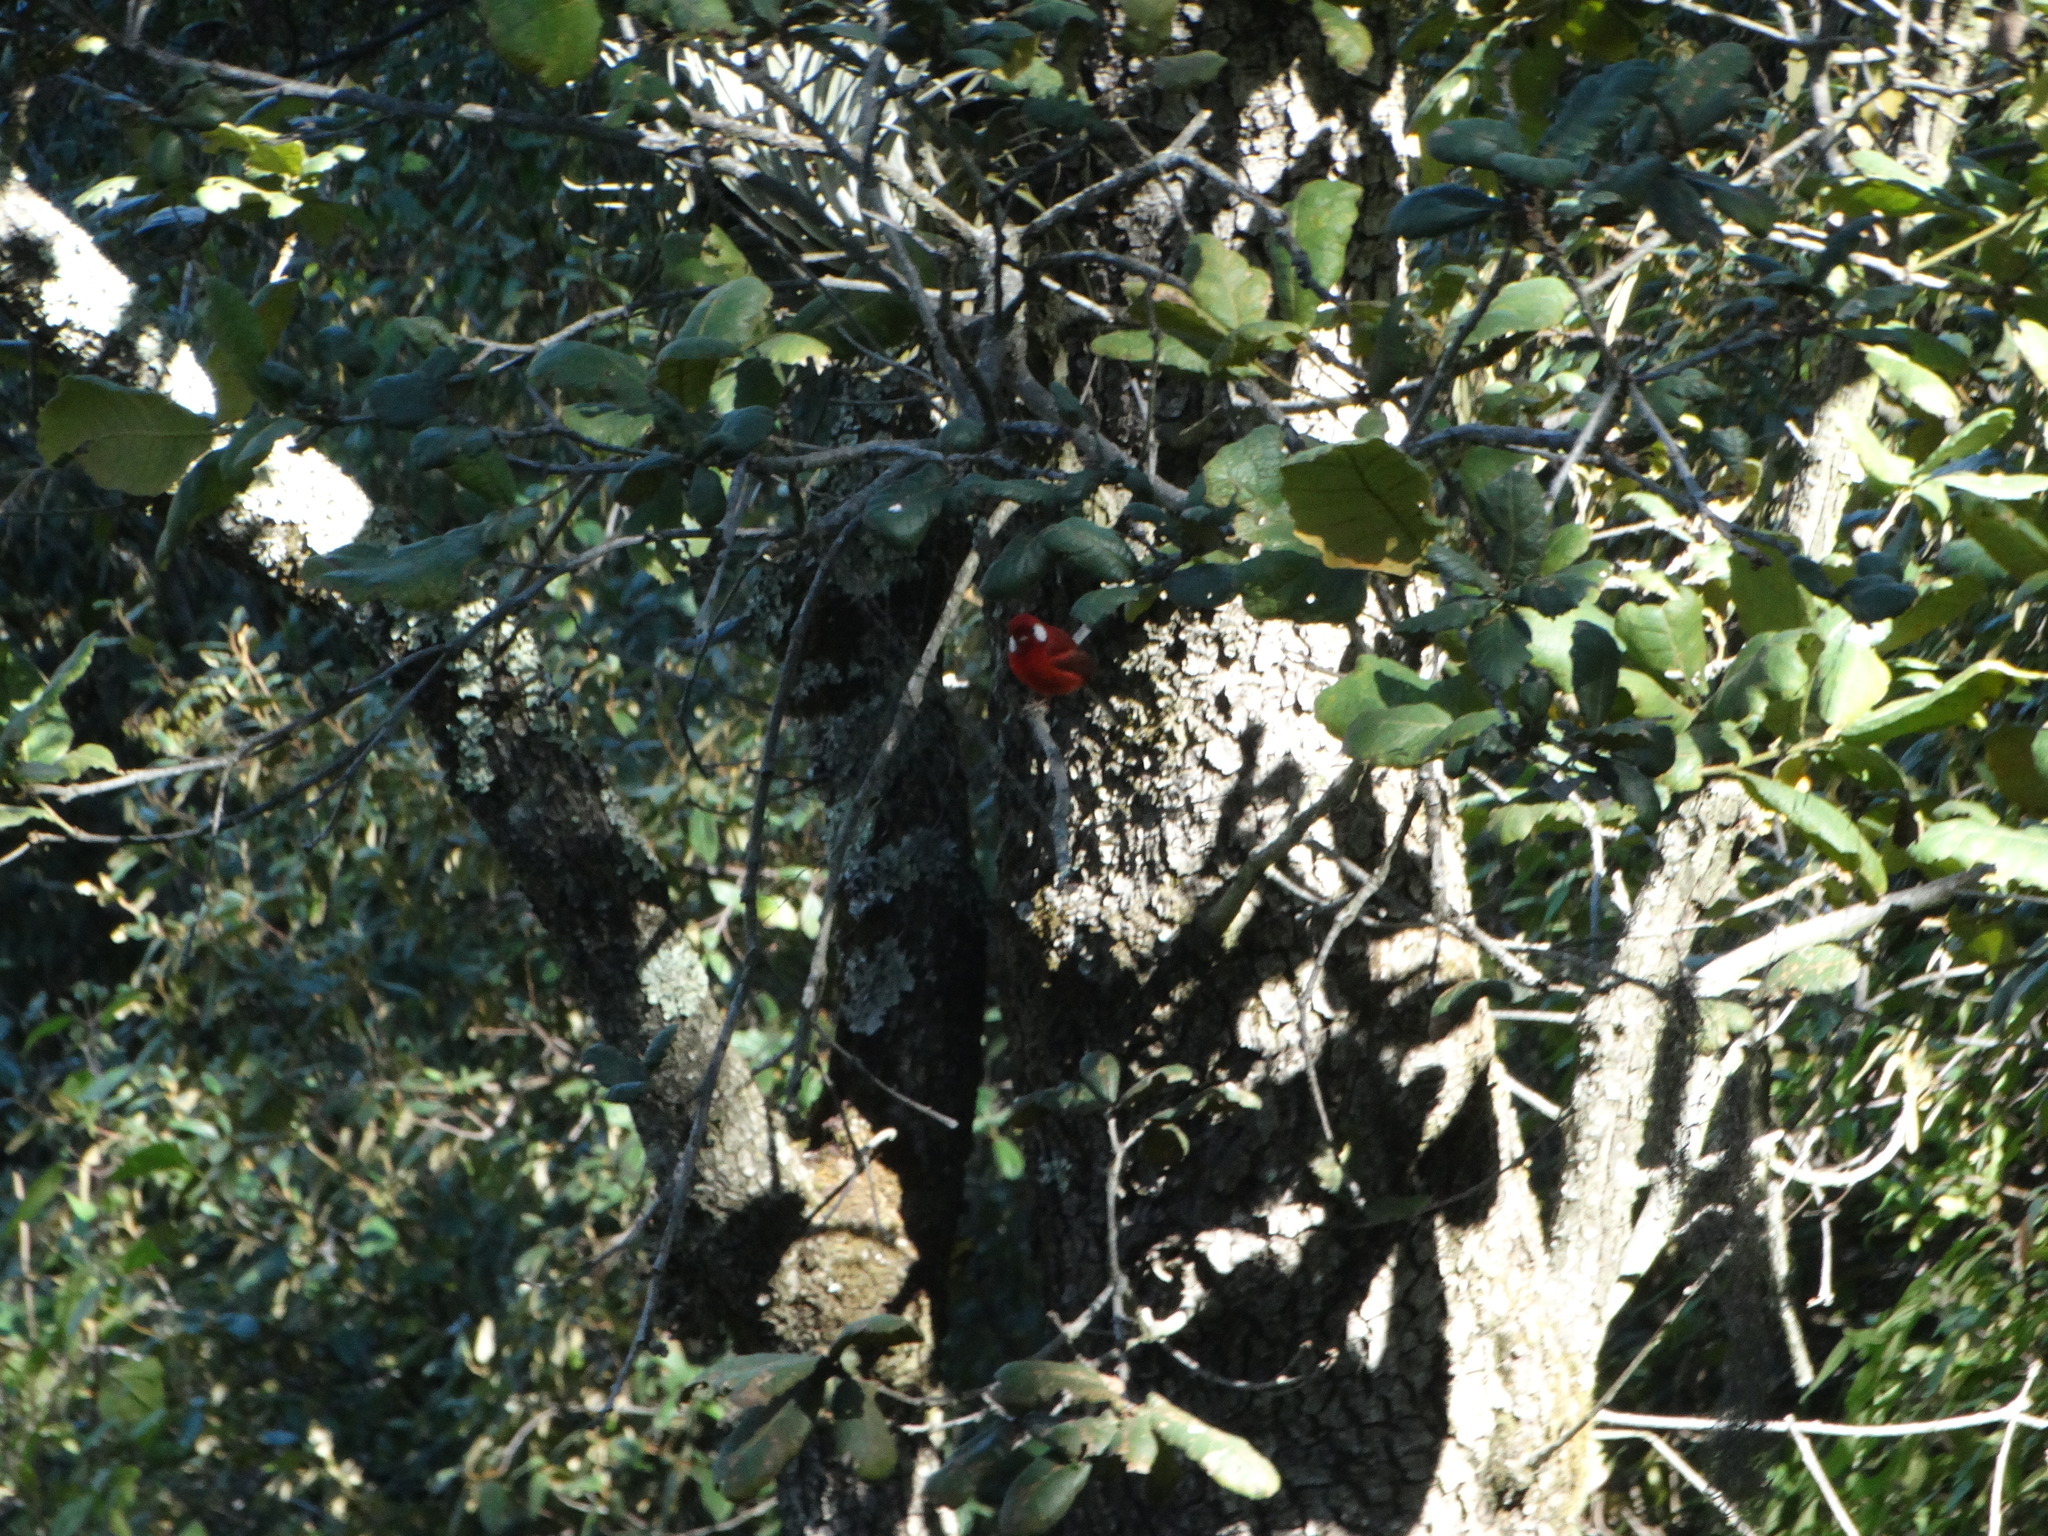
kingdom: Animalia
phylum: Chordata
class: Aves
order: Passeriformes
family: Parulidae
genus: Cardellina
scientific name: Cardellina rubra
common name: Red warbler
